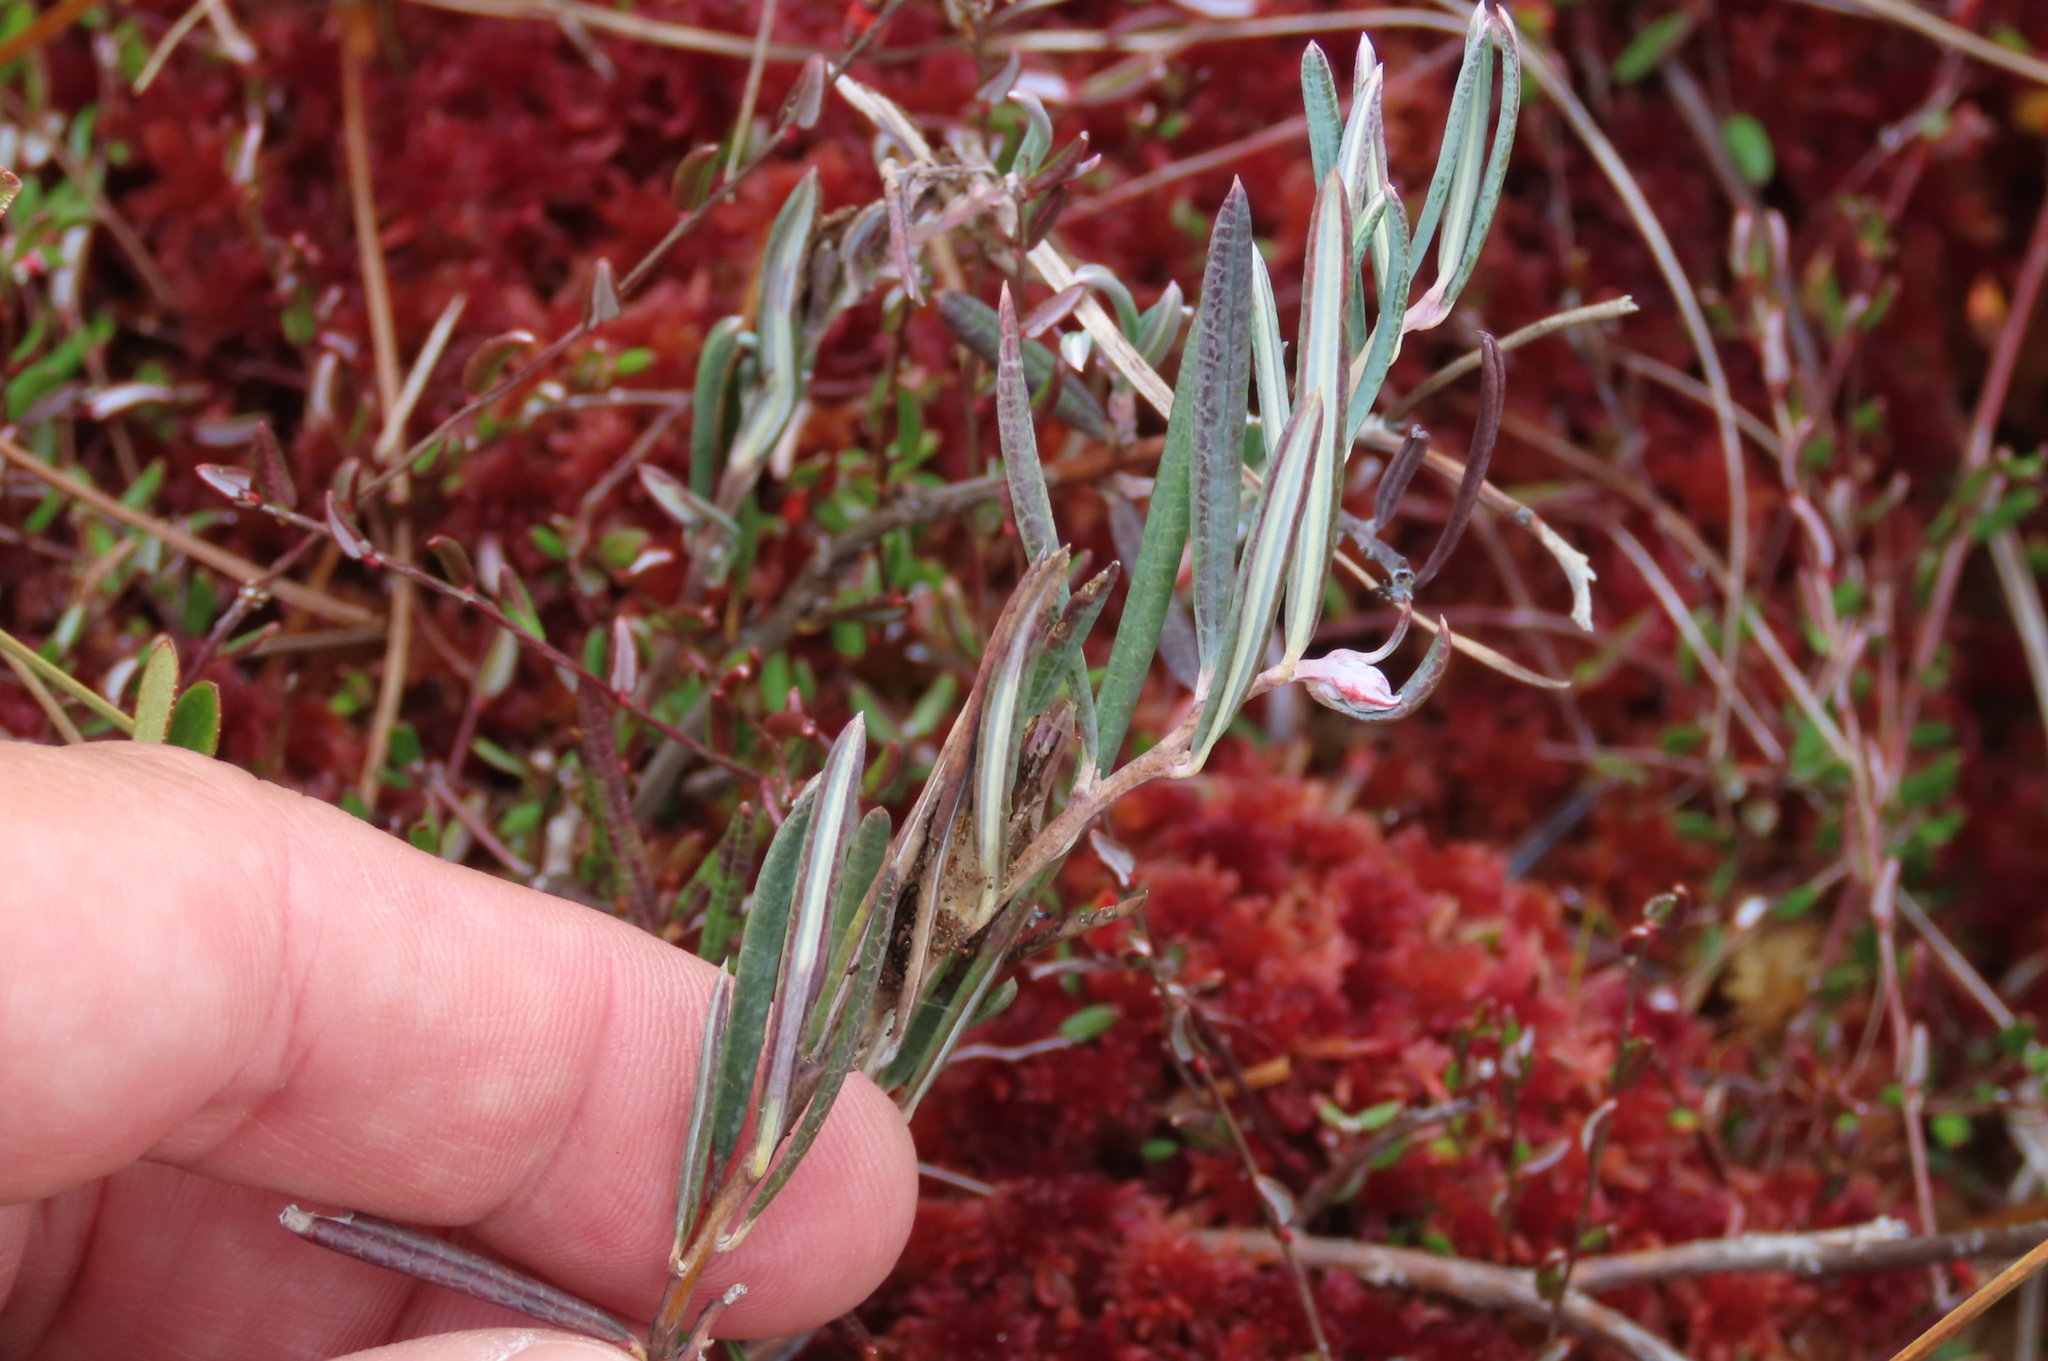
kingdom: Plantae
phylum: Tracheophyta
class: Magnoliopsida
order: Ericales
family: Ericaceae
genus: Andromeda
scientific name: Andromeda polifolia
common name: Bog-rosemary
